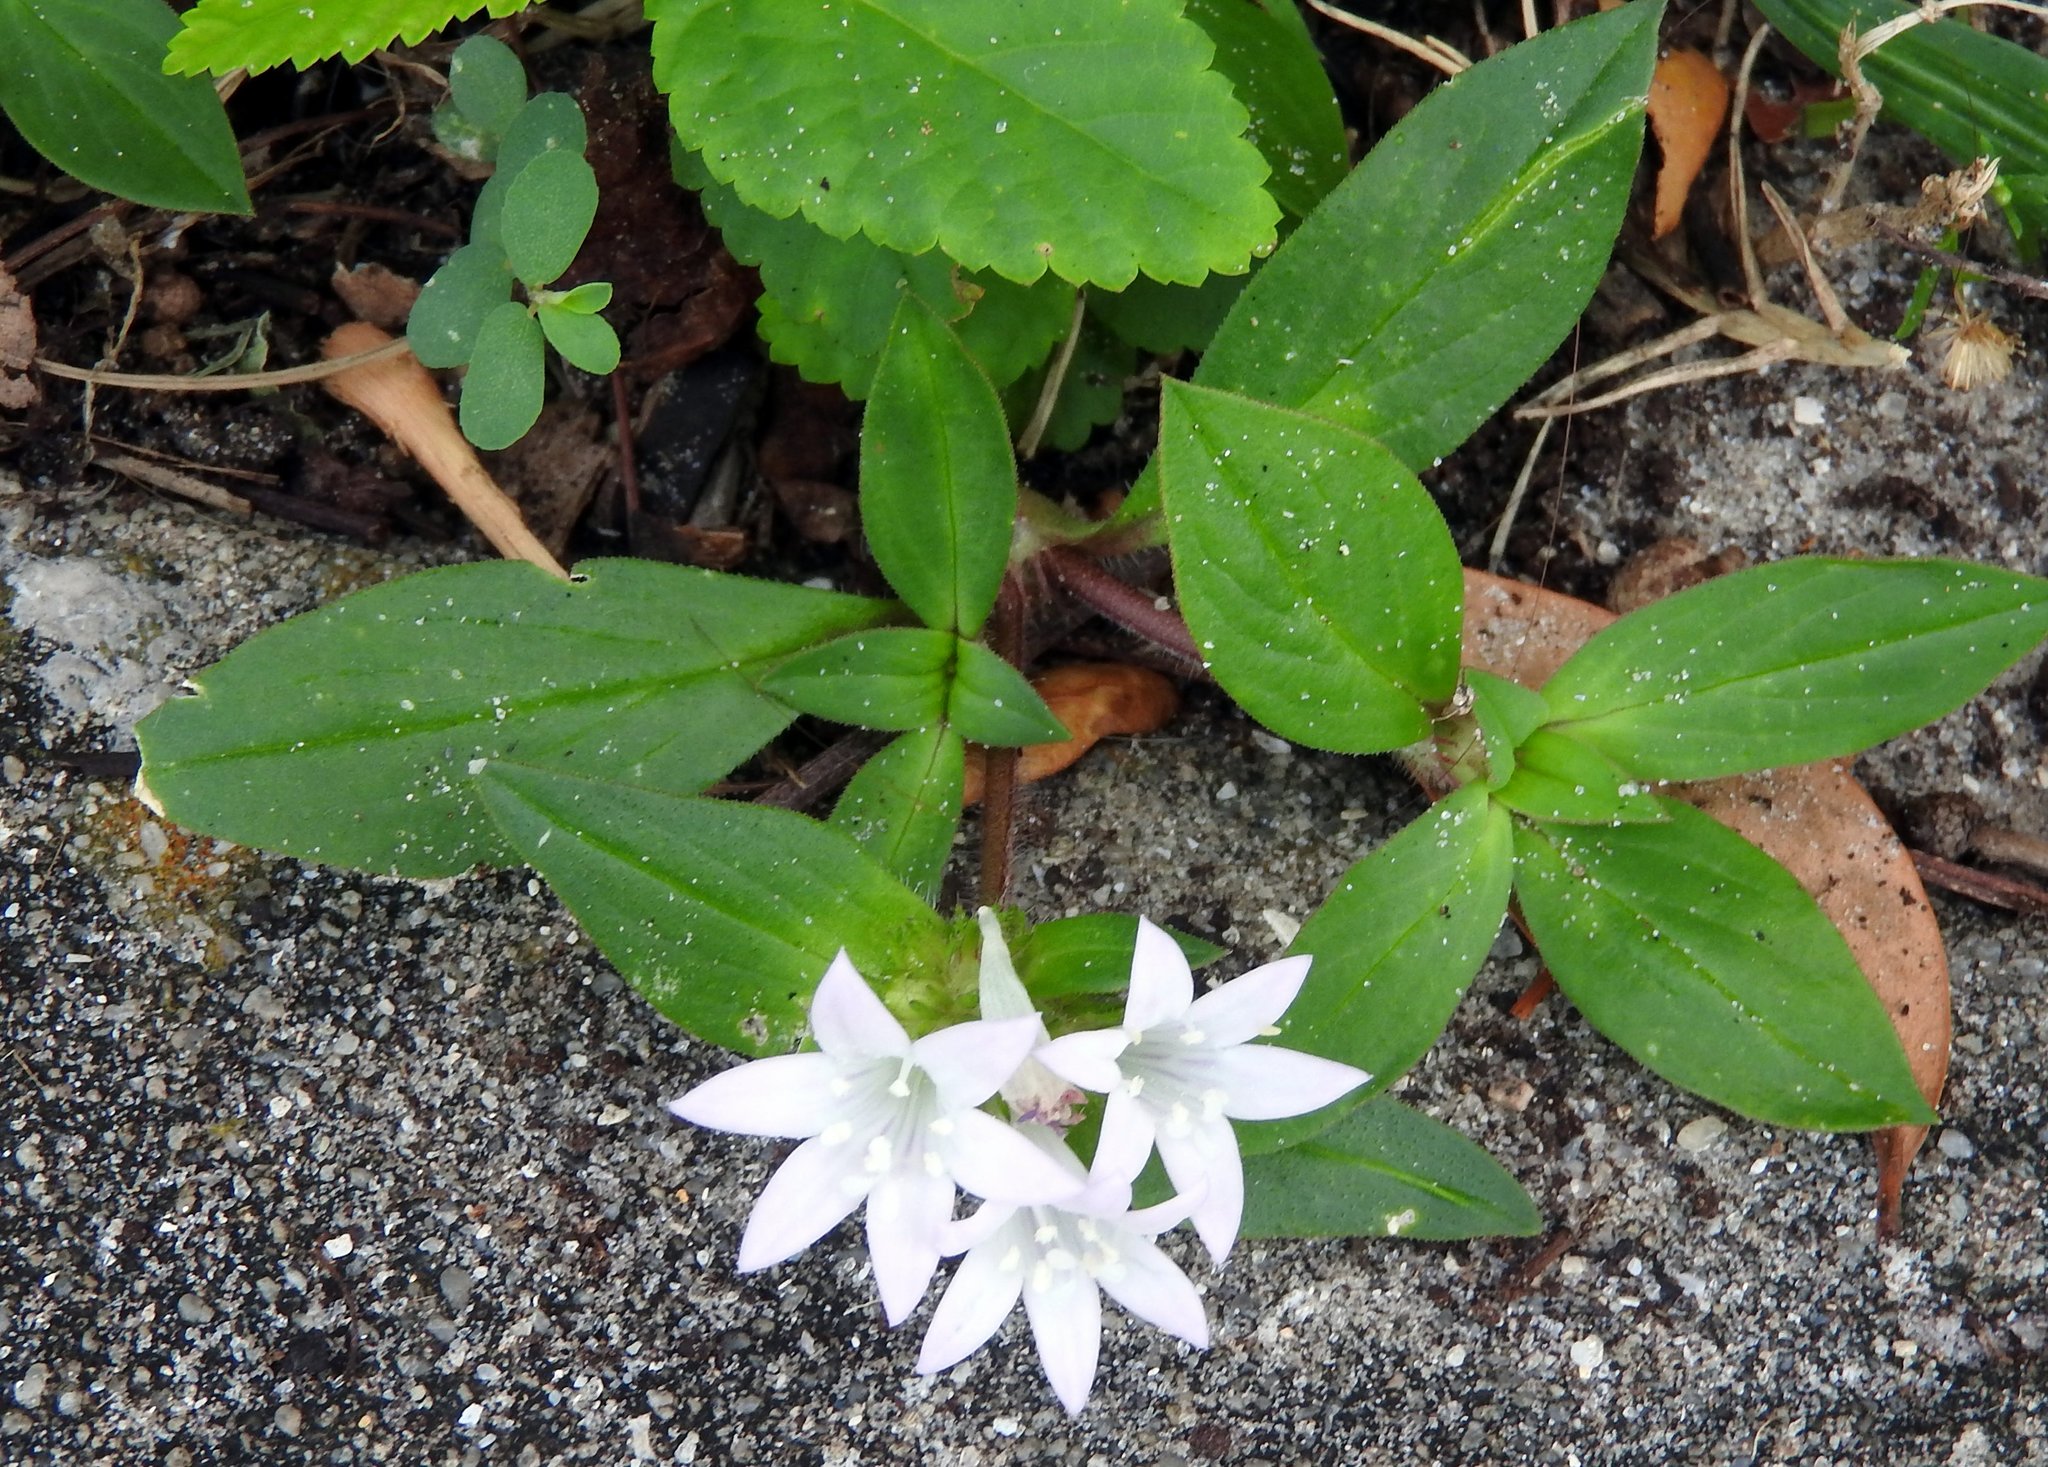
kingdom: Plantae
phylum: Tracheophyta
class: Magnoliopsida
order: Gentianales
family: Rubiaceae
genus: Richardia
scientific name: Richardia grandiflora
